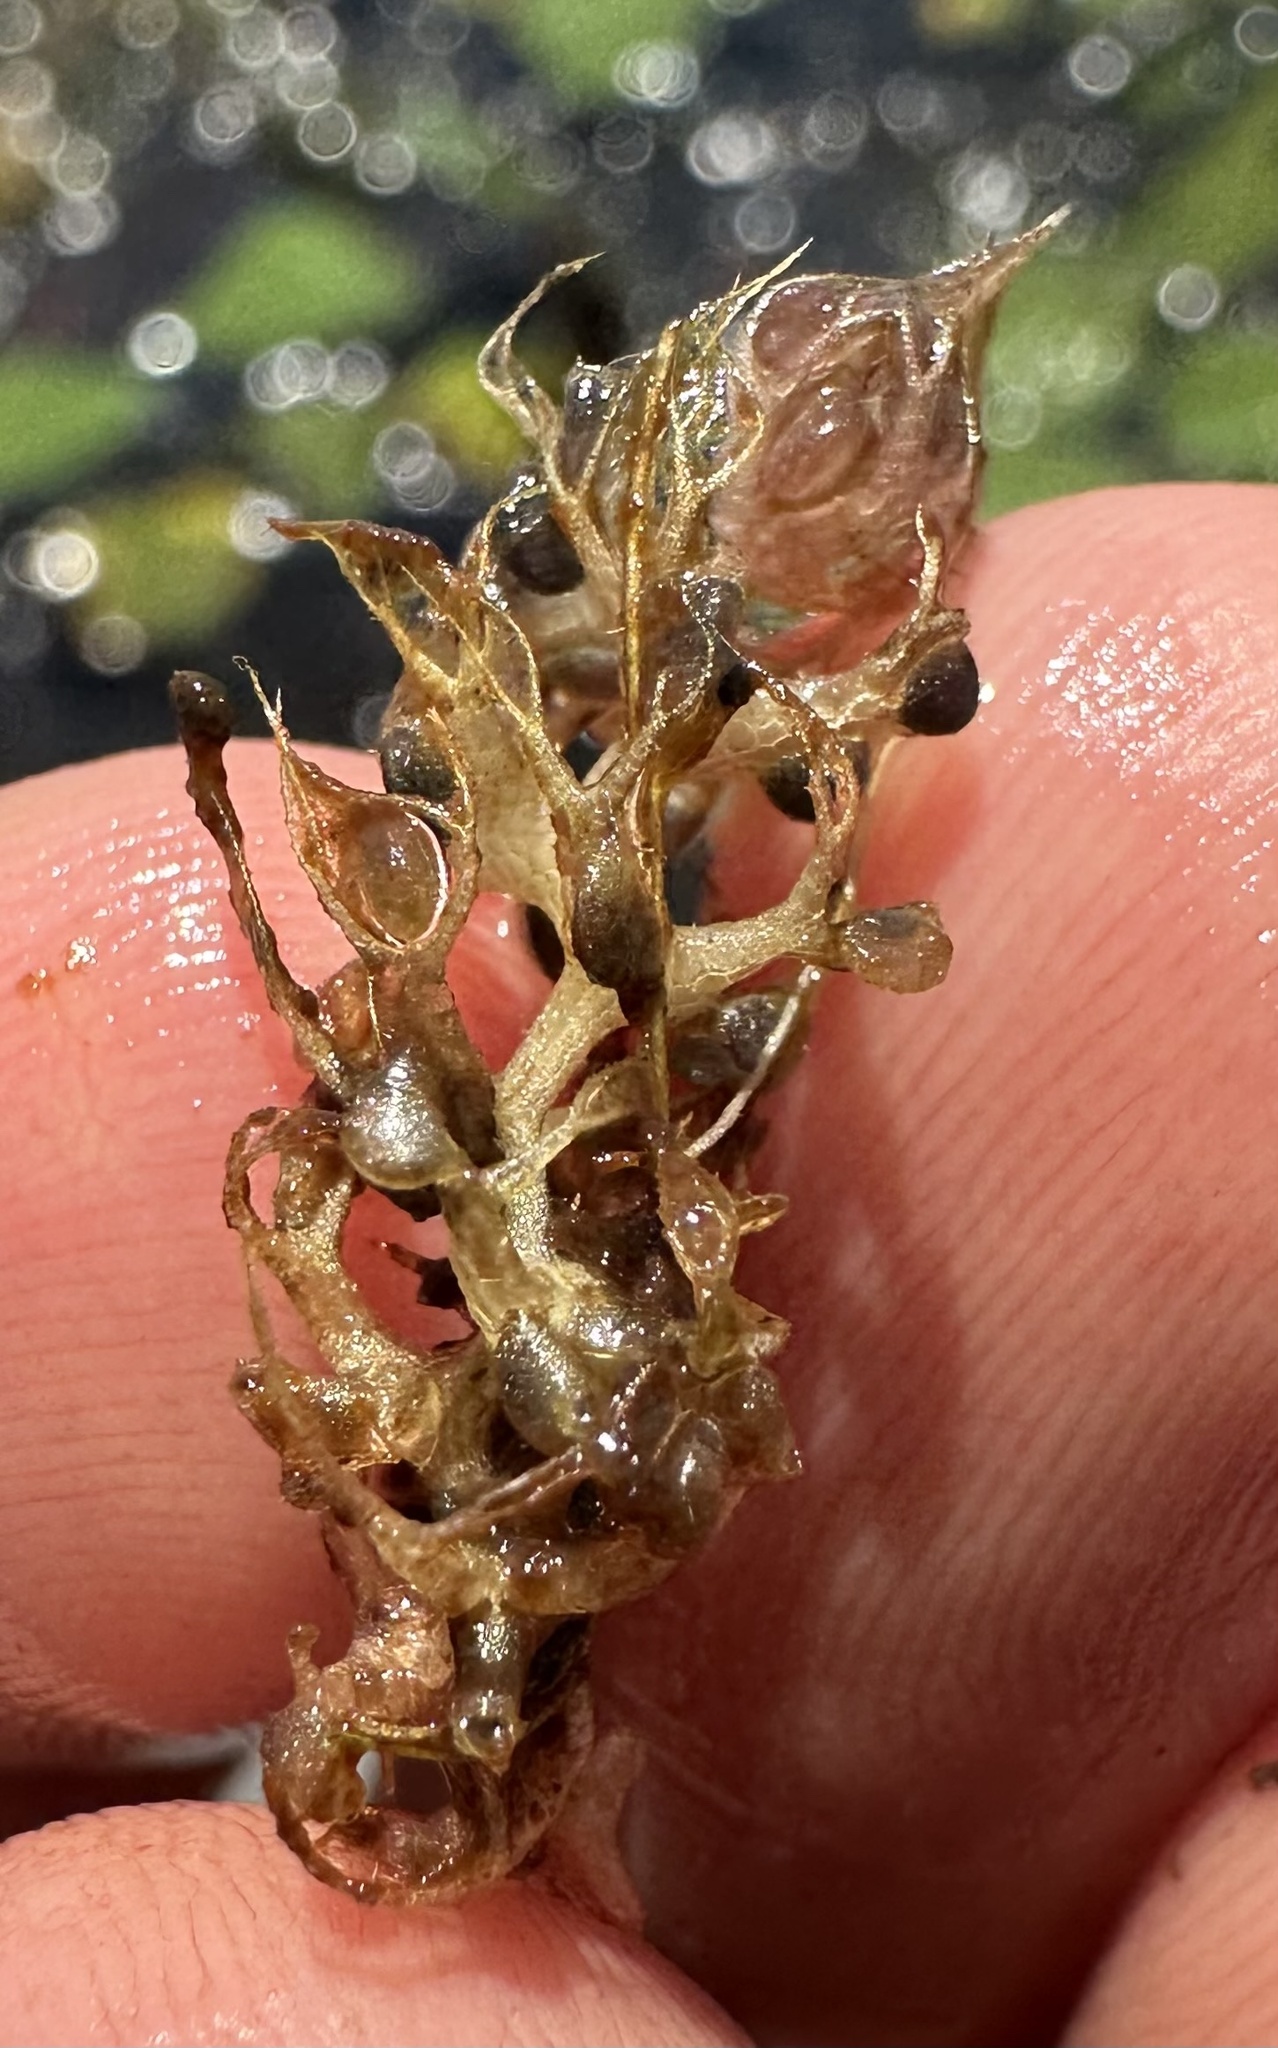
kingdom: Plantae
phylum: Tracheophyta
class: Magnoliopsida
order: Lamiales
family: Lentibulariaceae
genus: Utricularia
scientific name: Utricularia raynalii
